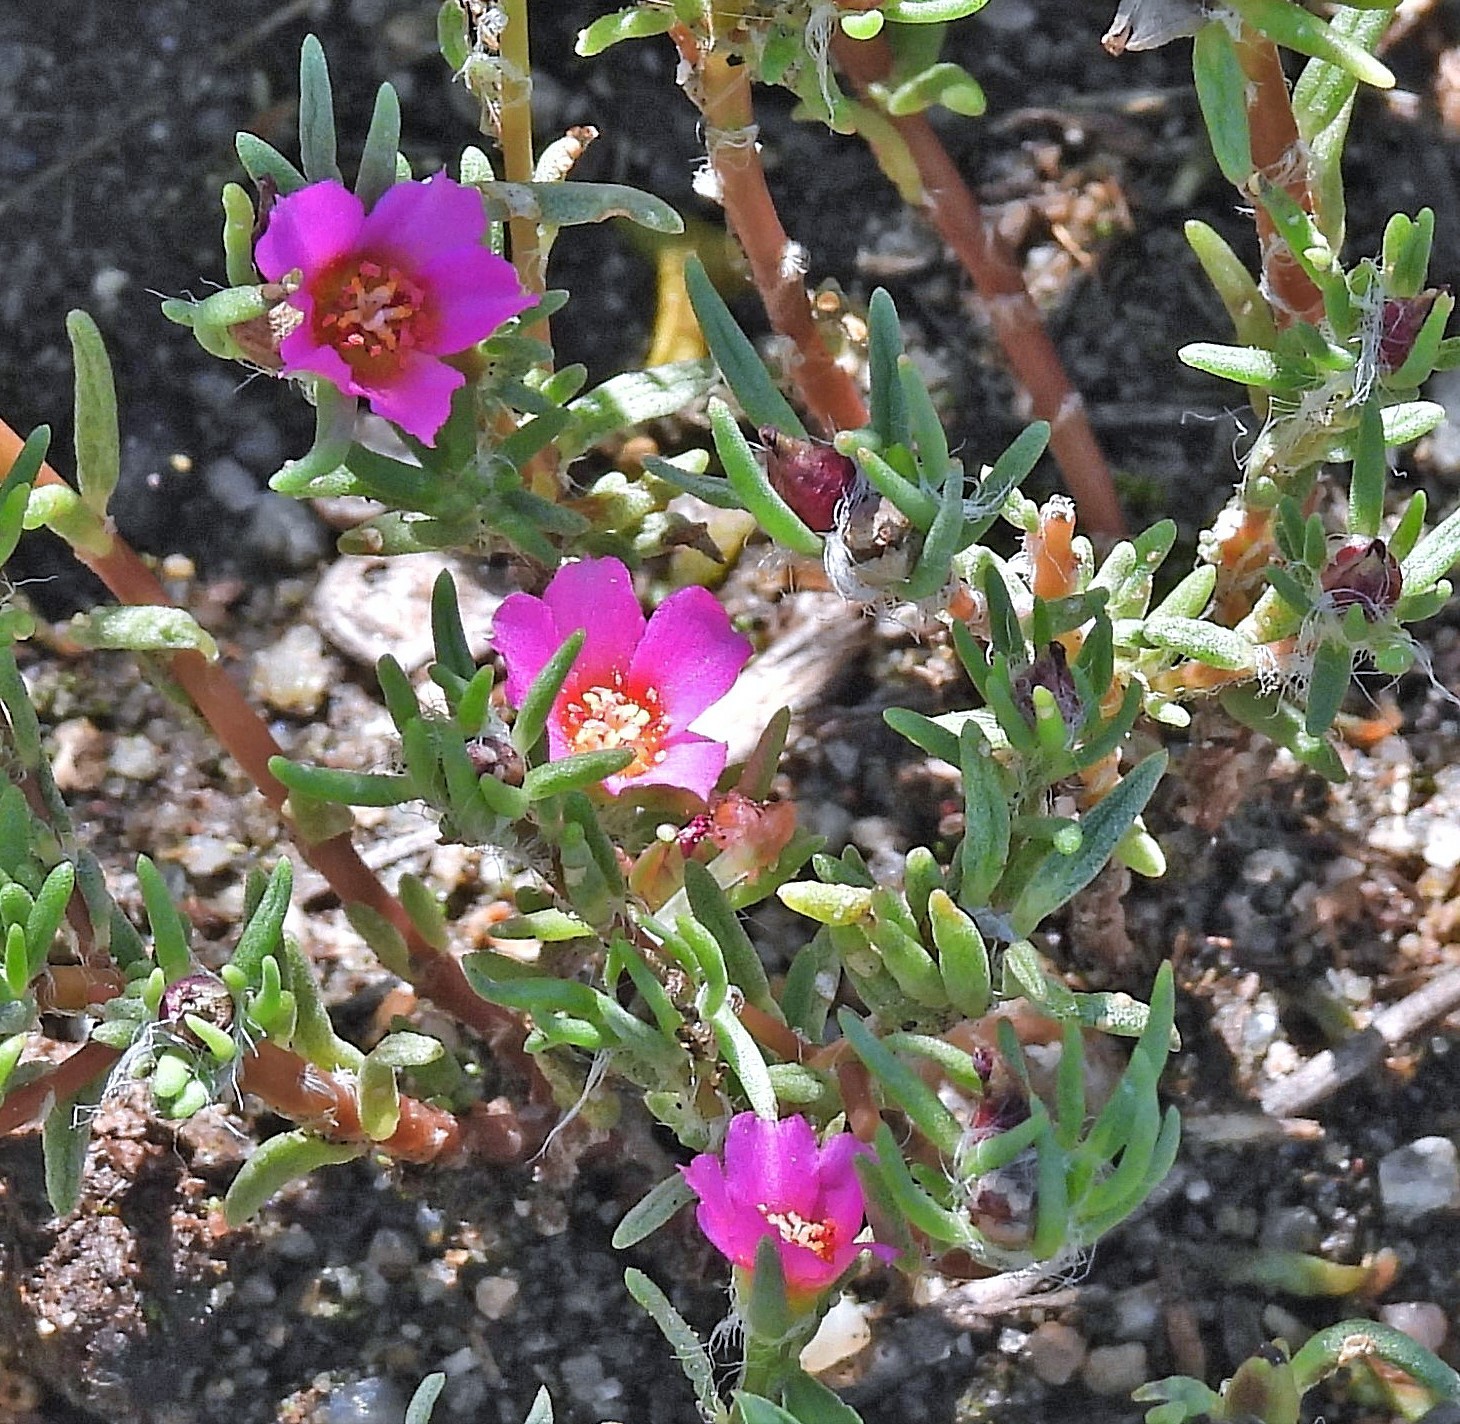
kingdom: Plantae
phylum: Tracheophyta
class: Magnoliopsida
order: Caryophyllales
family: Portulacaceae
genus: Portulaca
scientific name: Portulaca pilosa
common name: Kiss me quick
